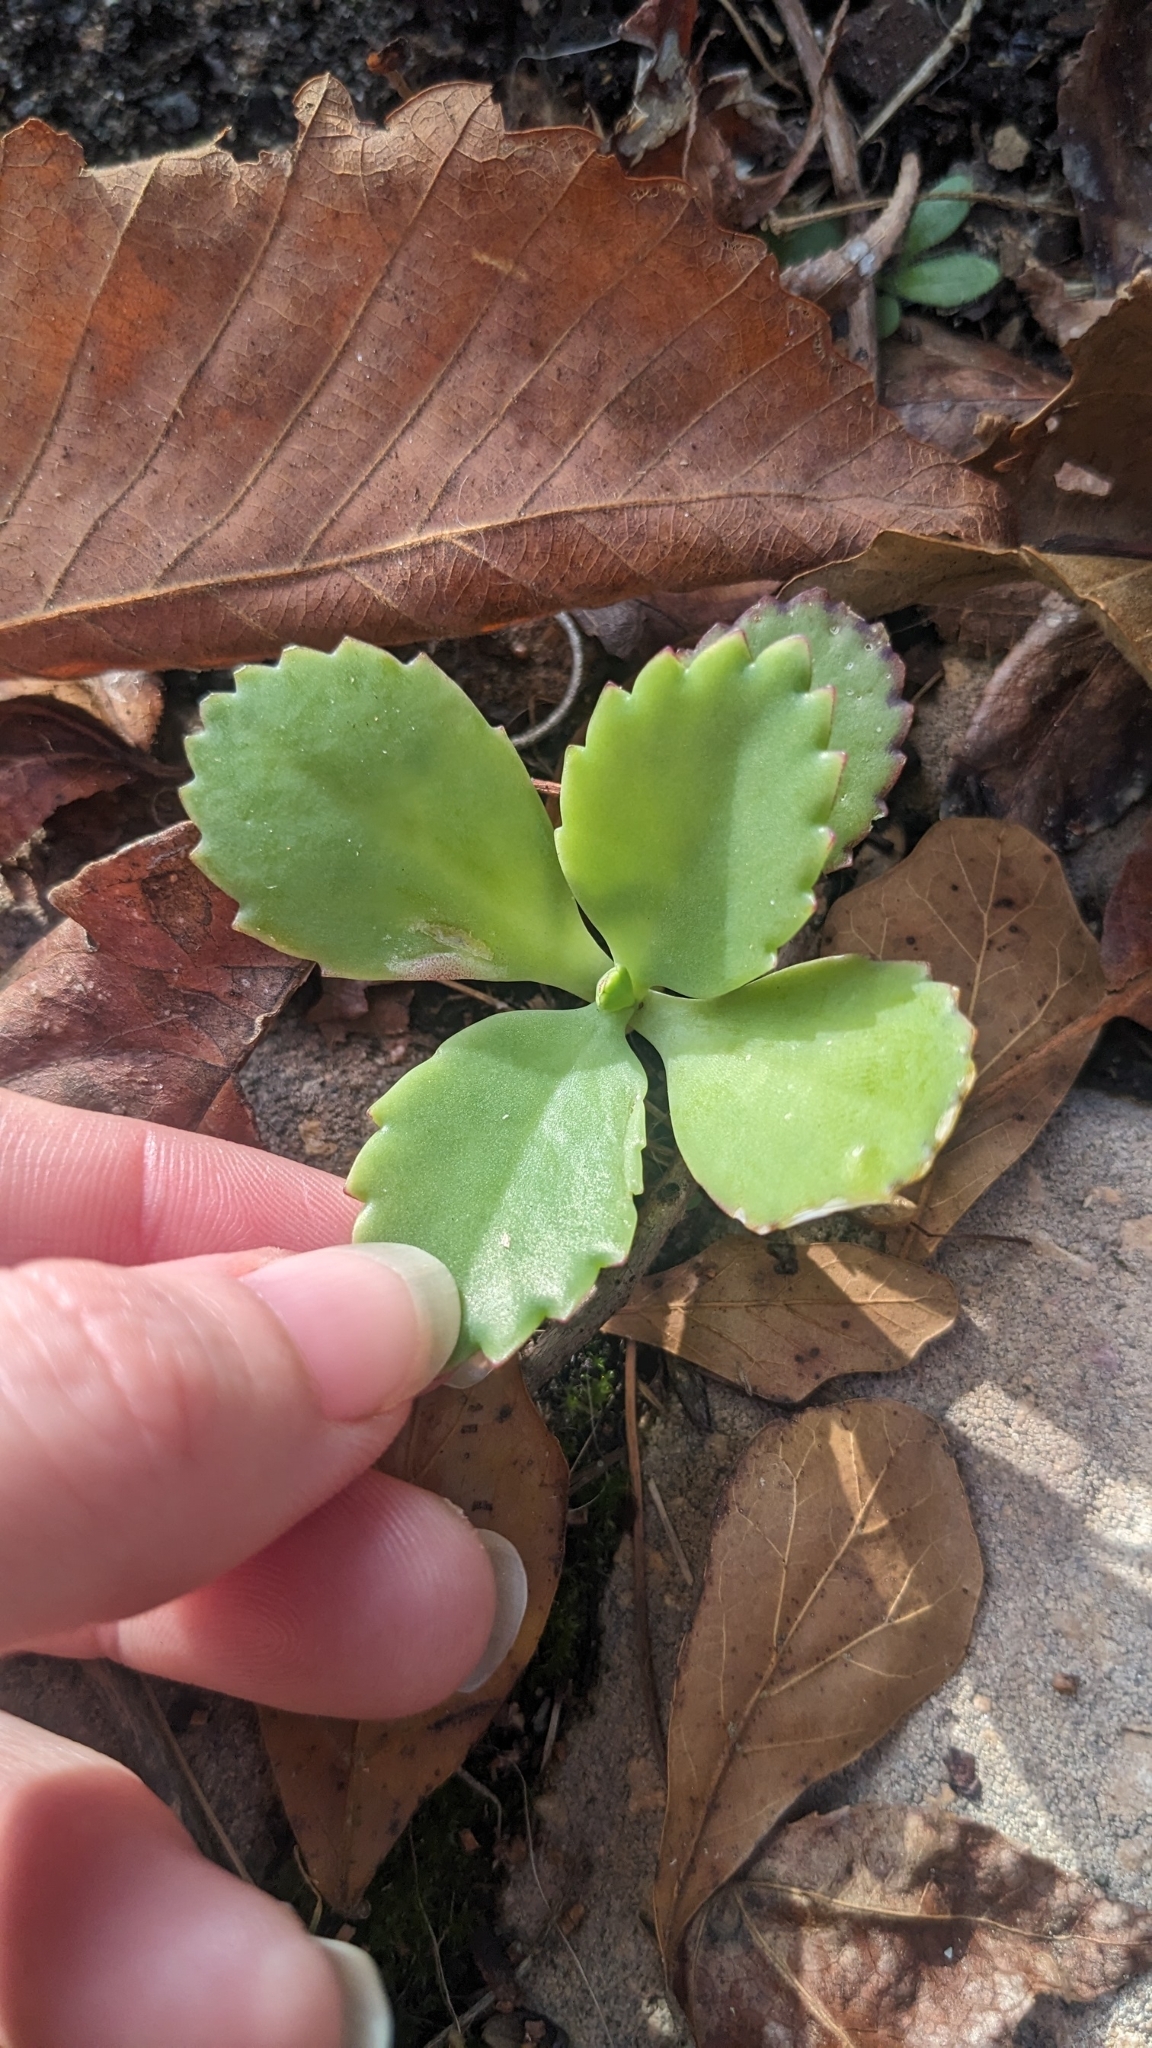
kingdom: Plantae
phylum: Tracheophyta
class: Magnoliopsida
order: Saxifragales
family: Crassulaceae
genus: Kalanchoe
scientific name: Kalanchoe laetivirens
